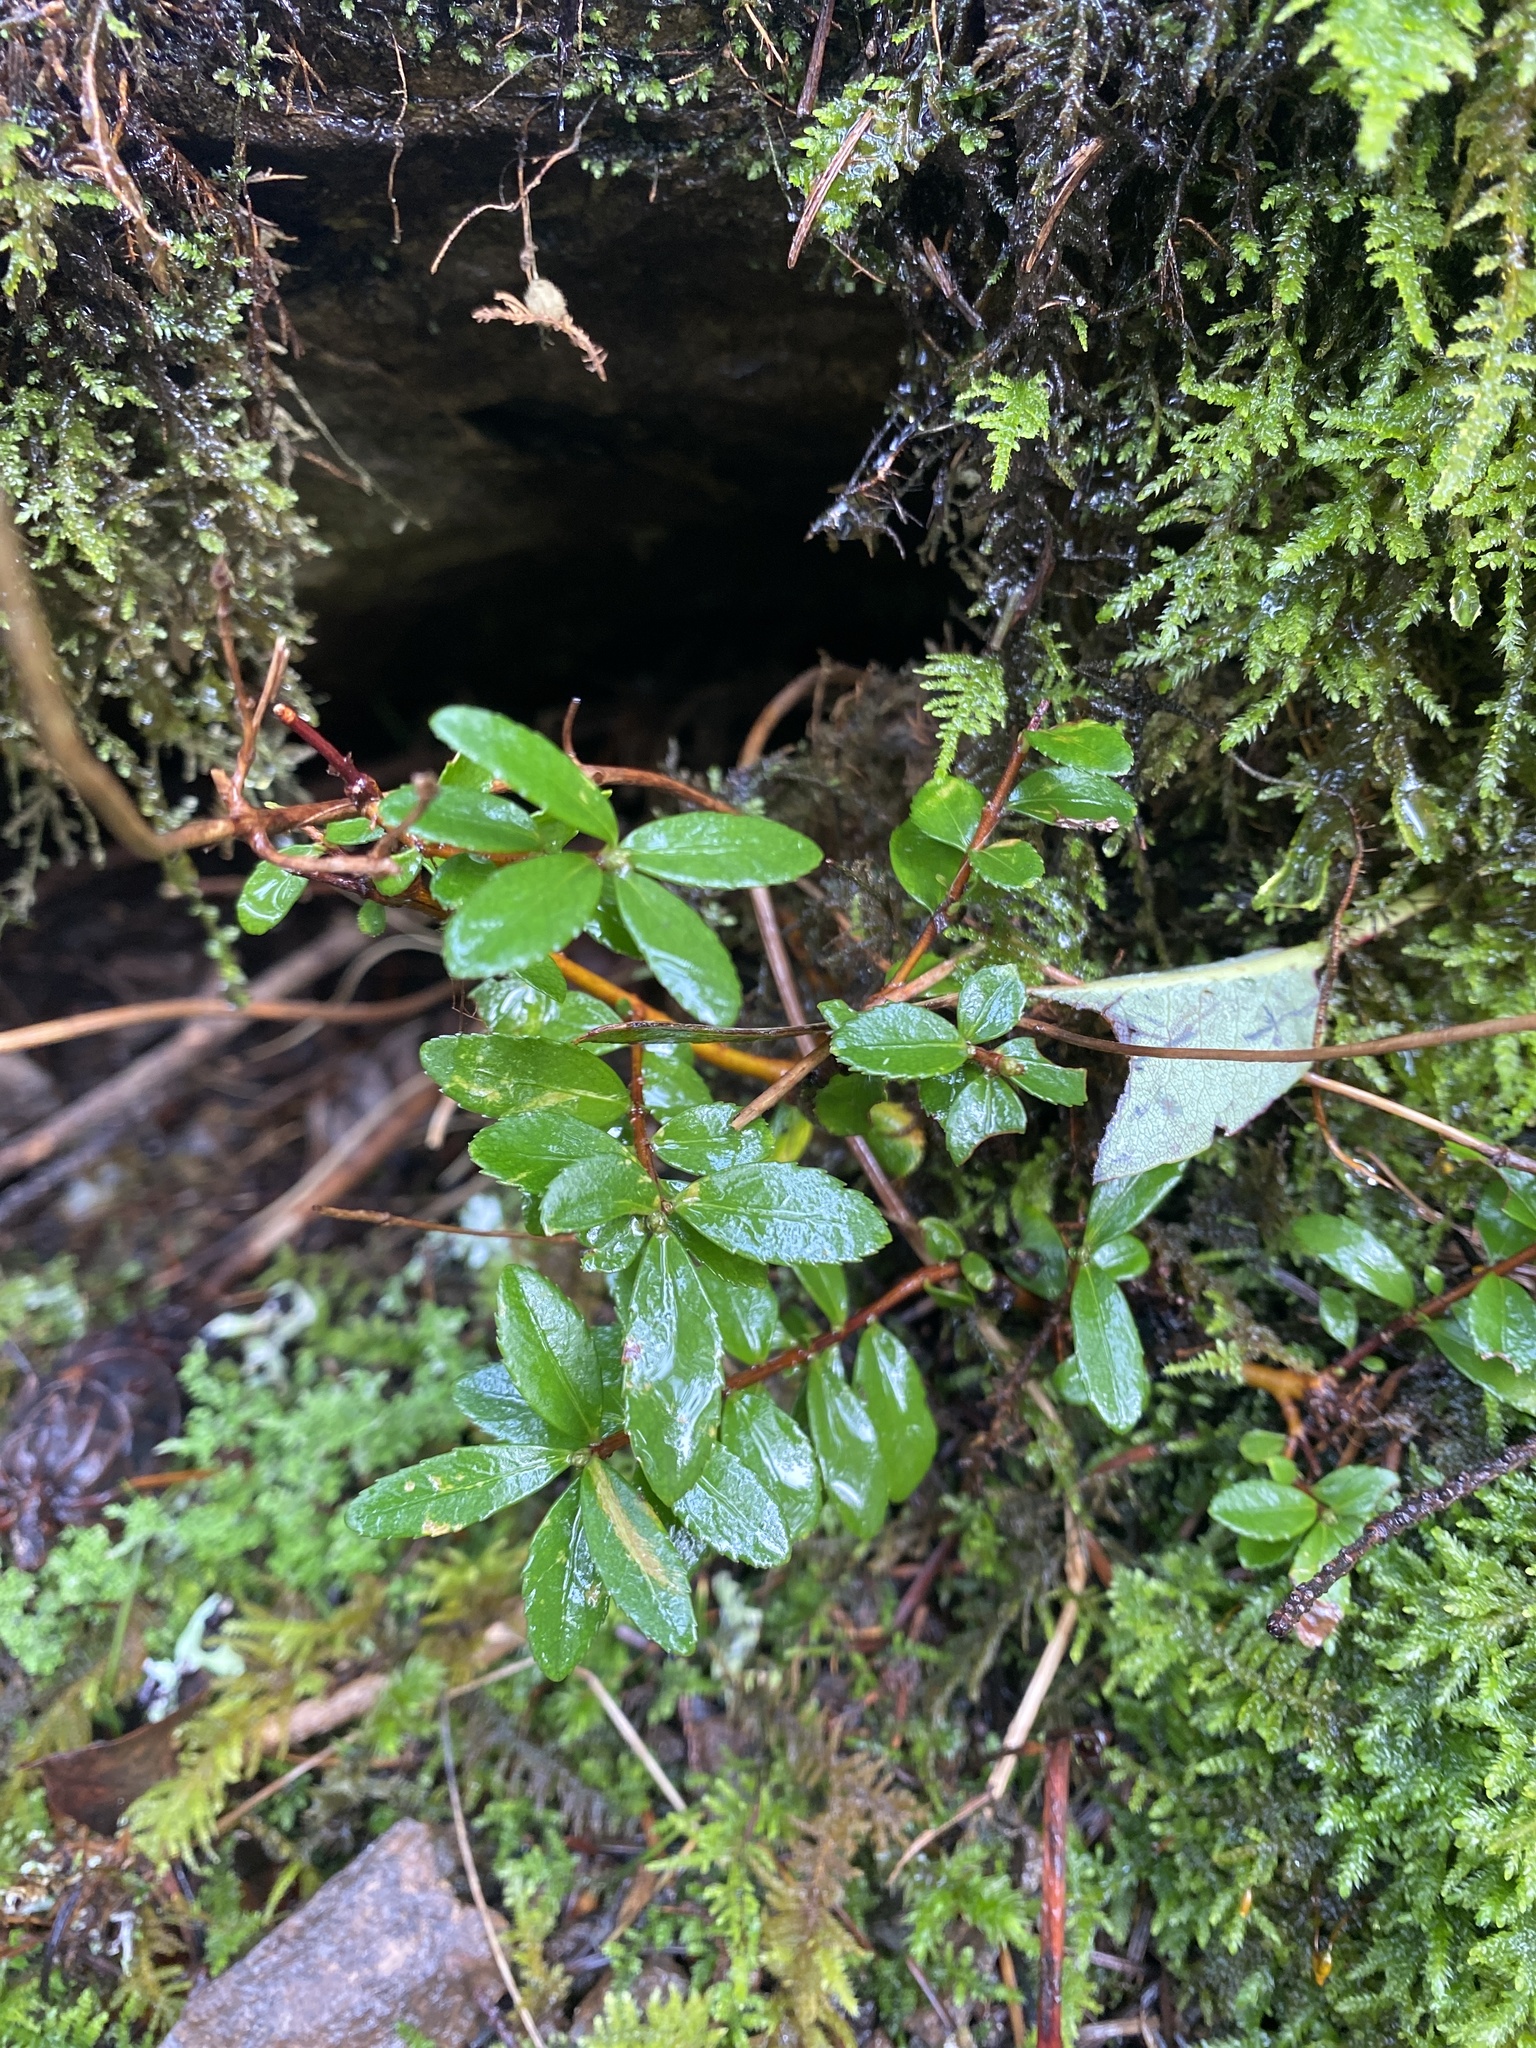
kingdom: Plantae
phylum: Tracheophyta
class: Magnoliopsida
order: Celastrales
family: Celastraceae
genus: Paxistima
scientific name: Paxistima myrsinites
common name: Mountain-lover
